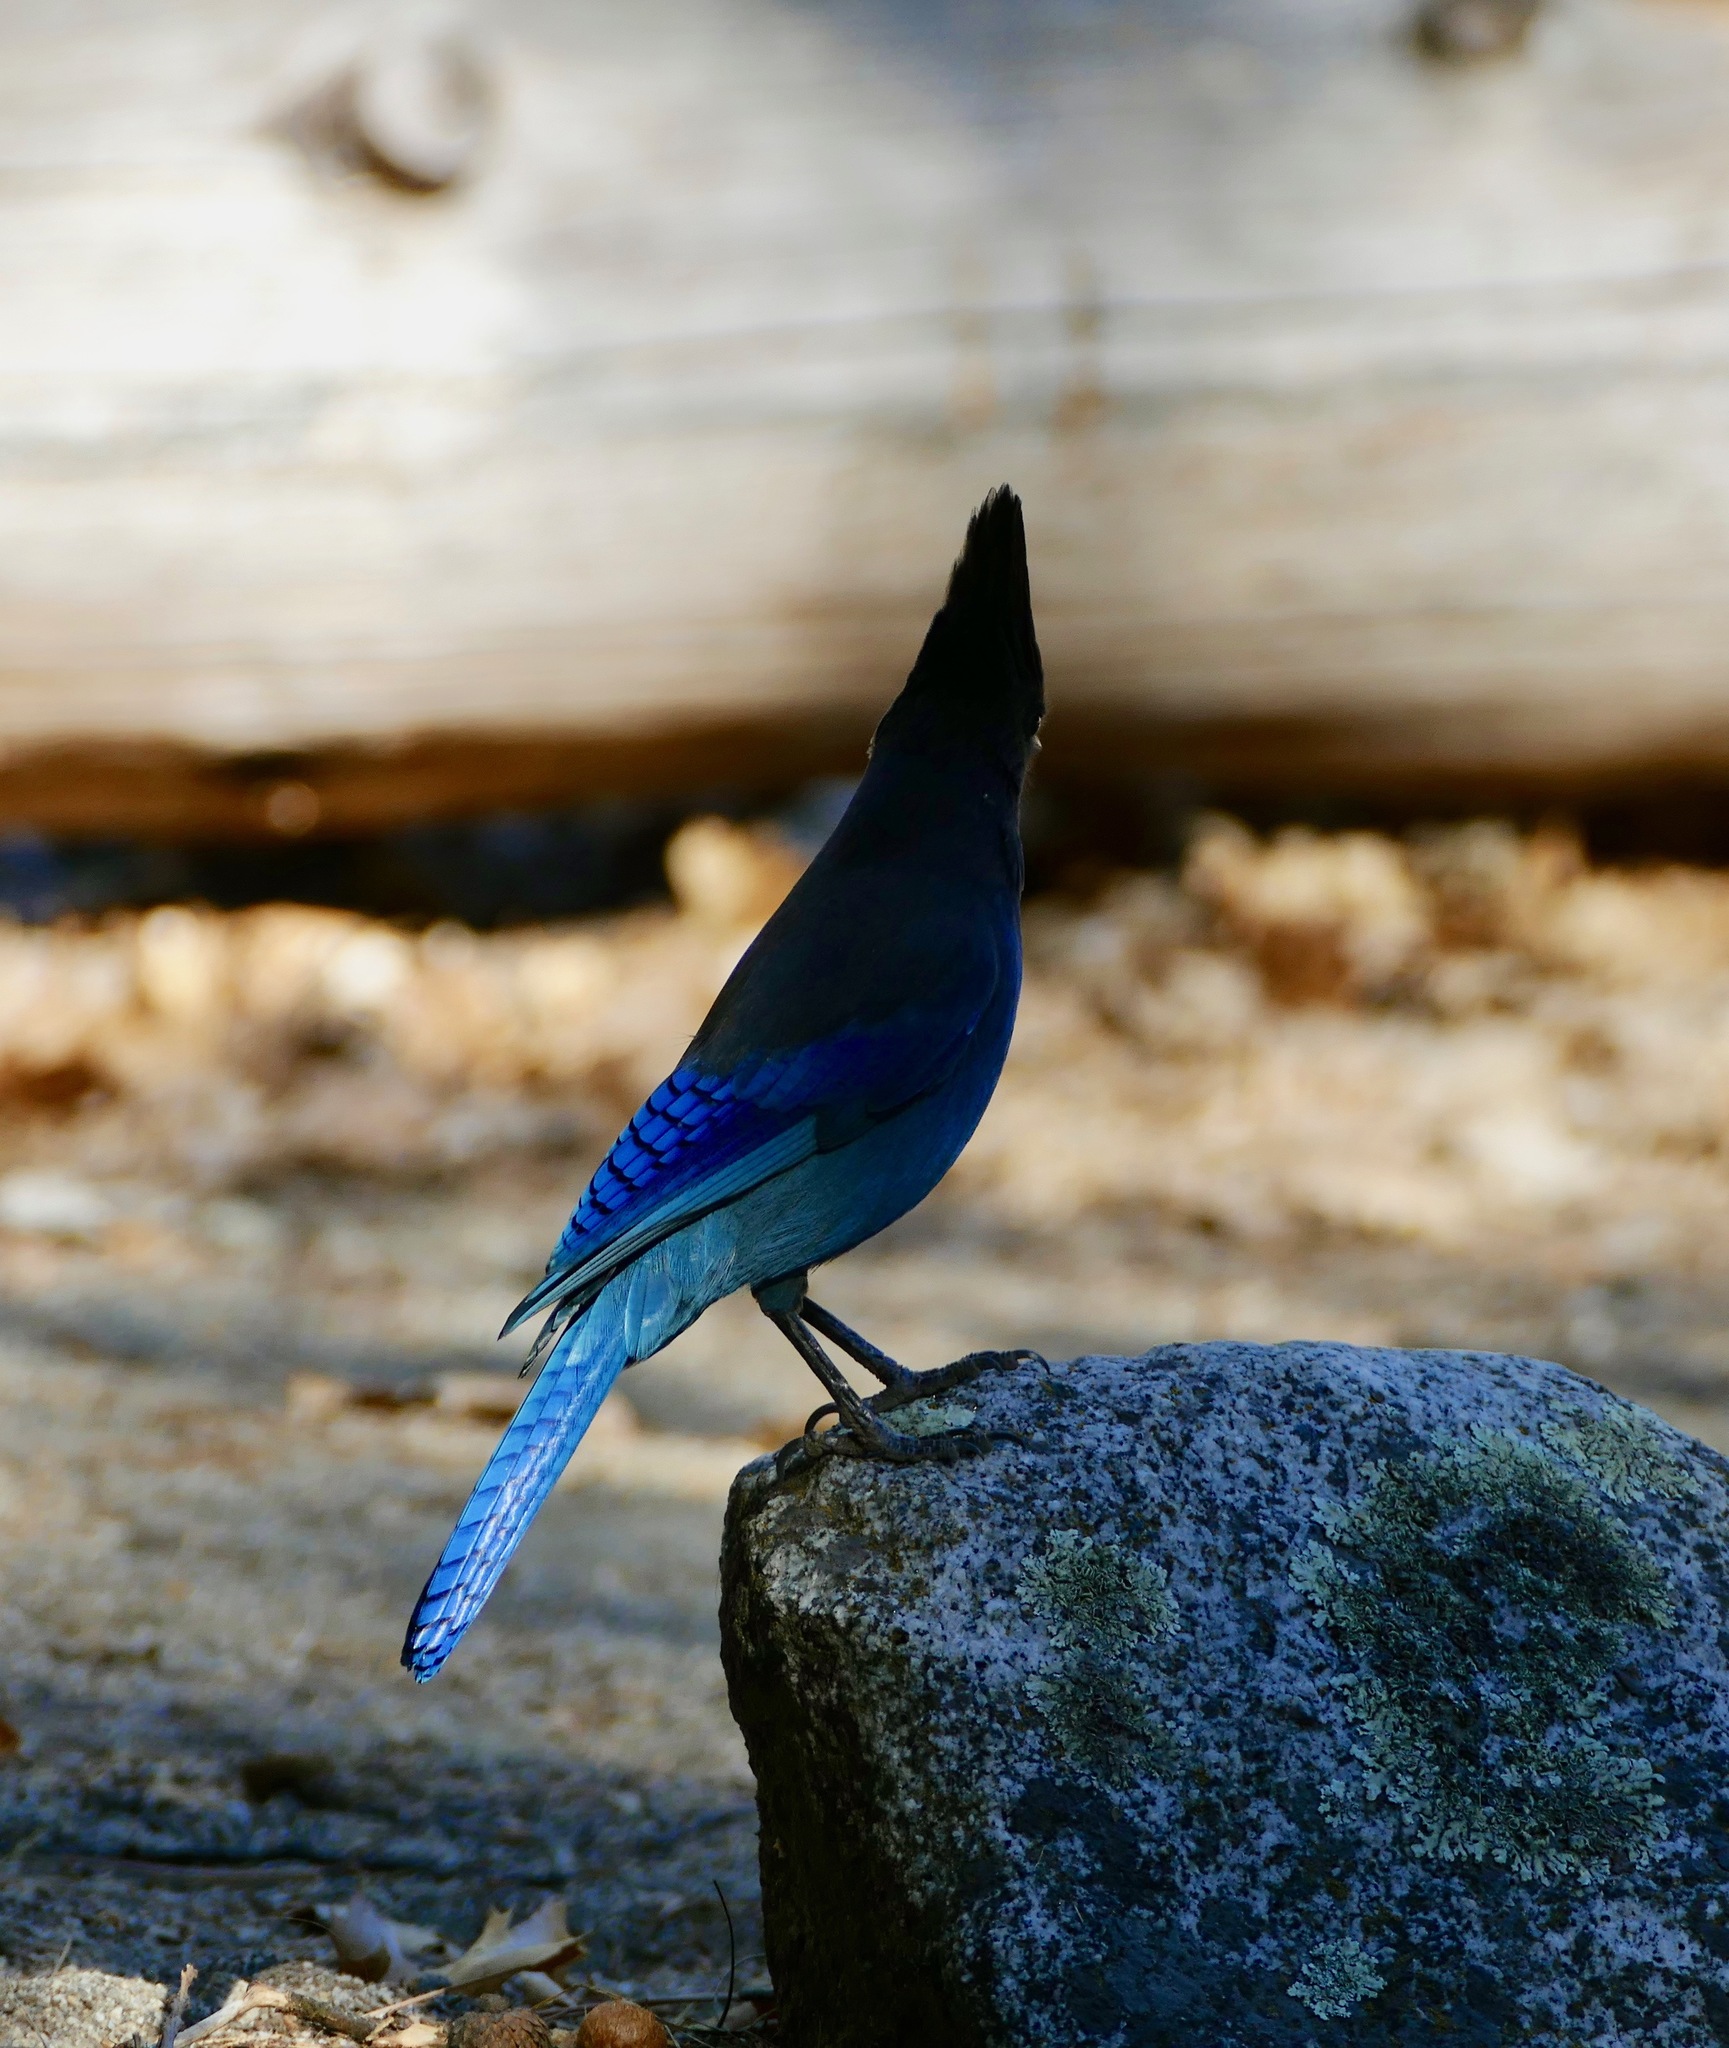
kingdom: Animalia
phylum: Chordata
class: Aves
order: Passeriformes
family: Corvidae
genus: Cyanocitta
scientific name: Cyanocitta stelleri
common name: Steller's jay
